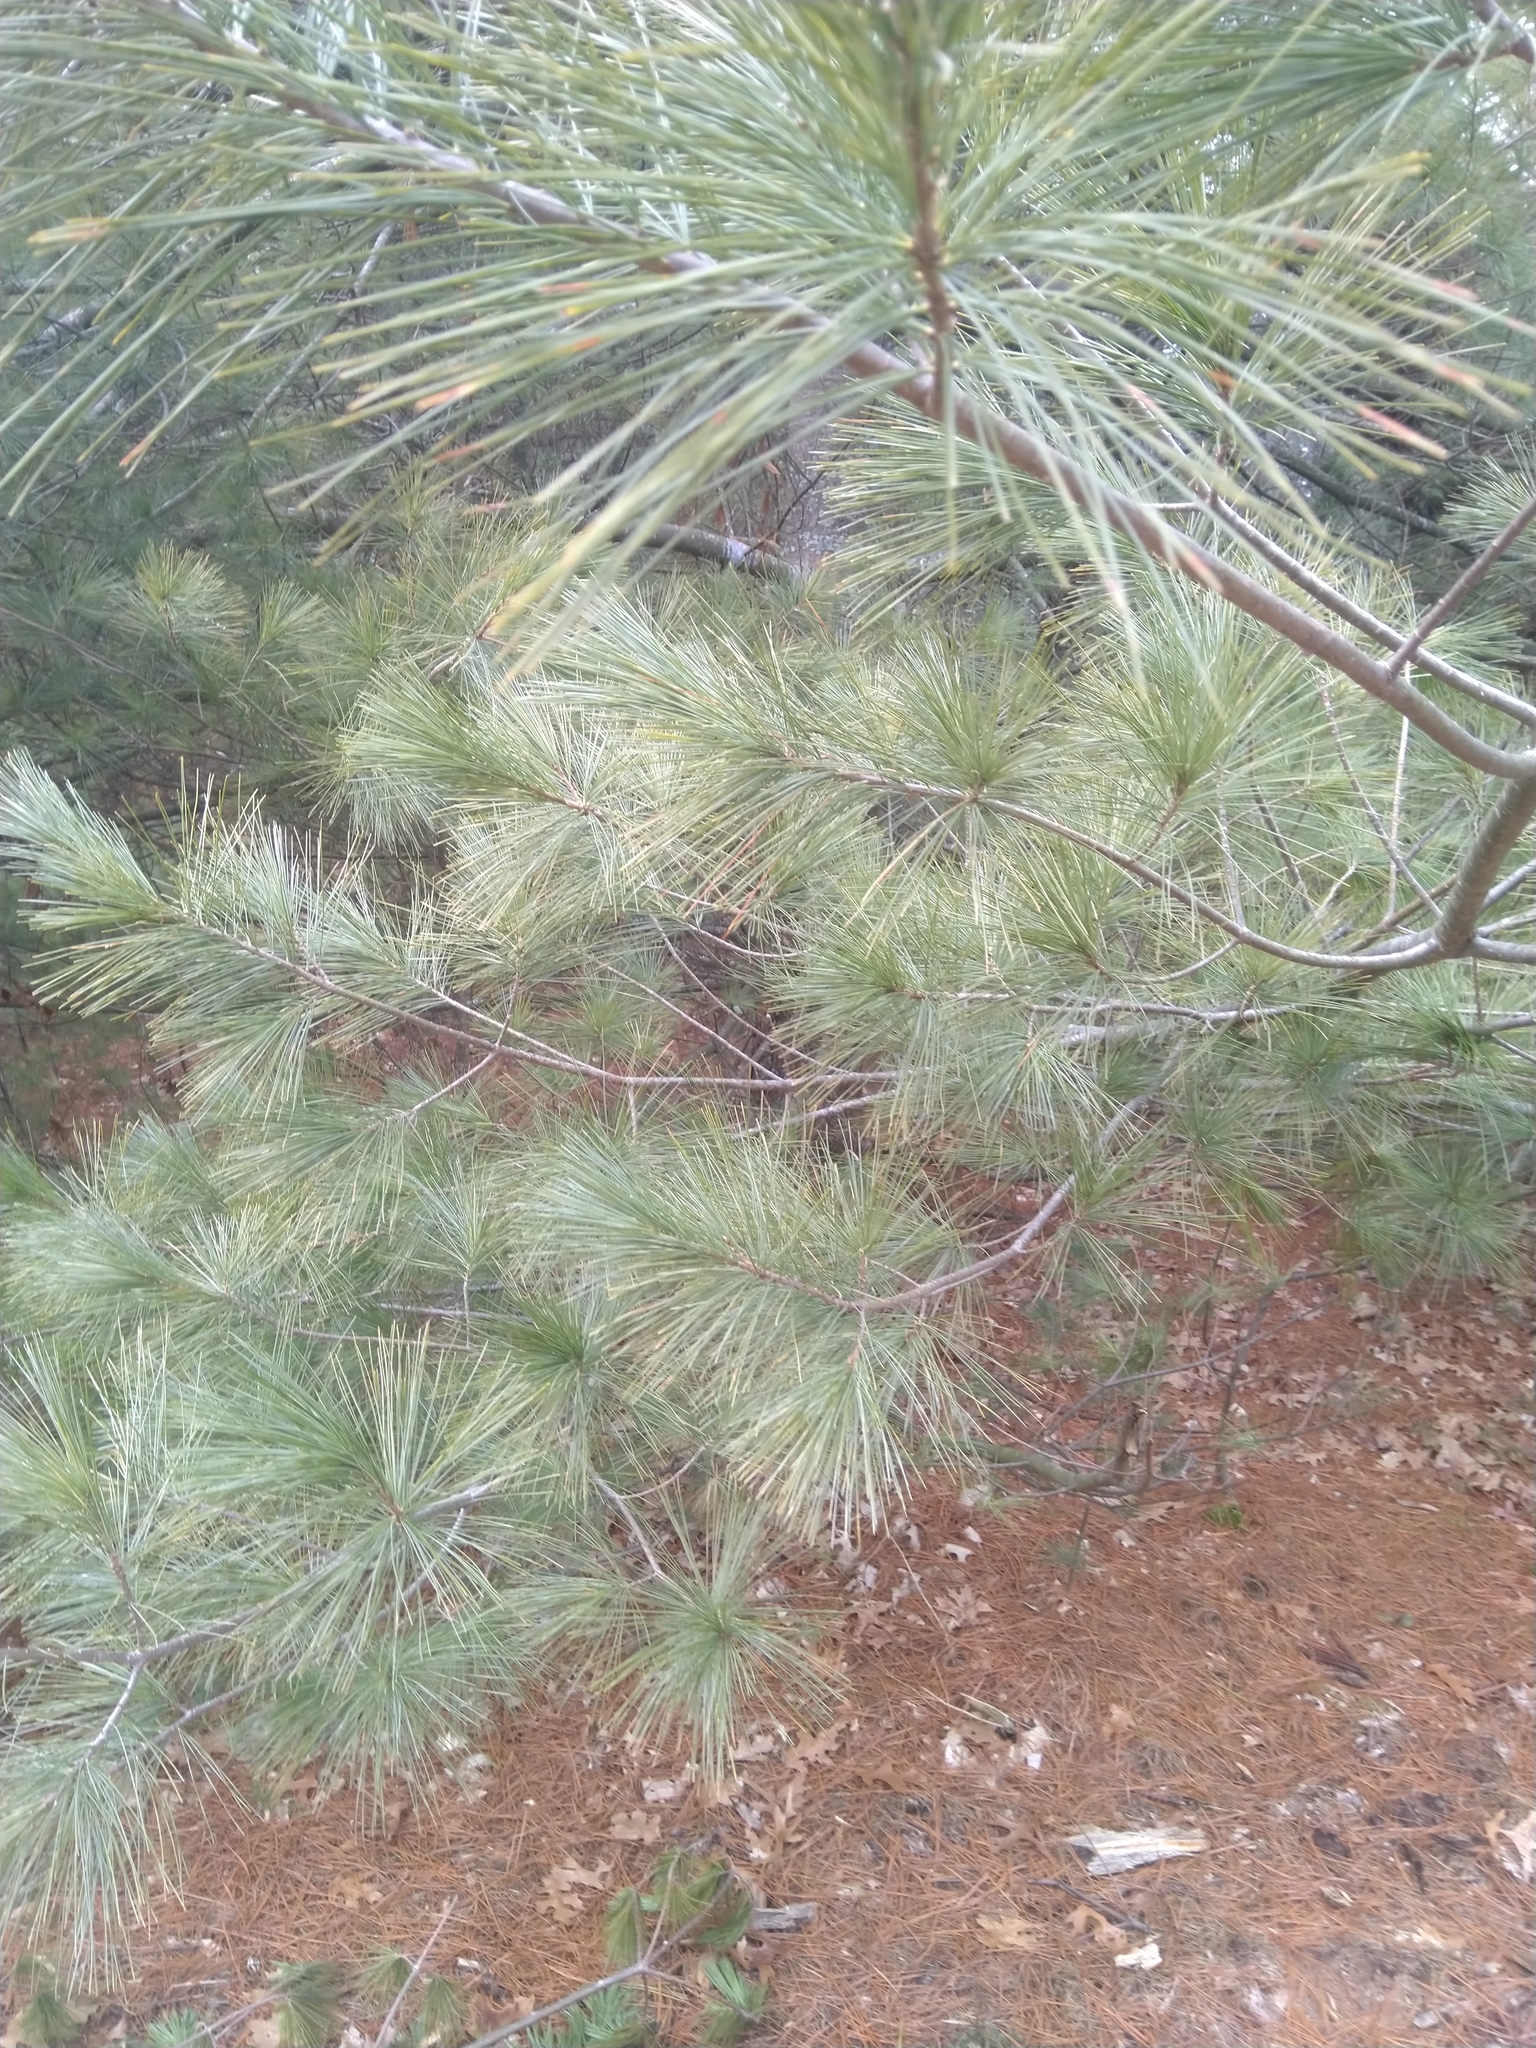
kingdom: Plantae
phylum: Tracheophyta
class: Pinopsida
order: Pinales
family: Pinaceae
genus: Pinus
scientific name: Pinus strobus
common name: Weymouth pine
